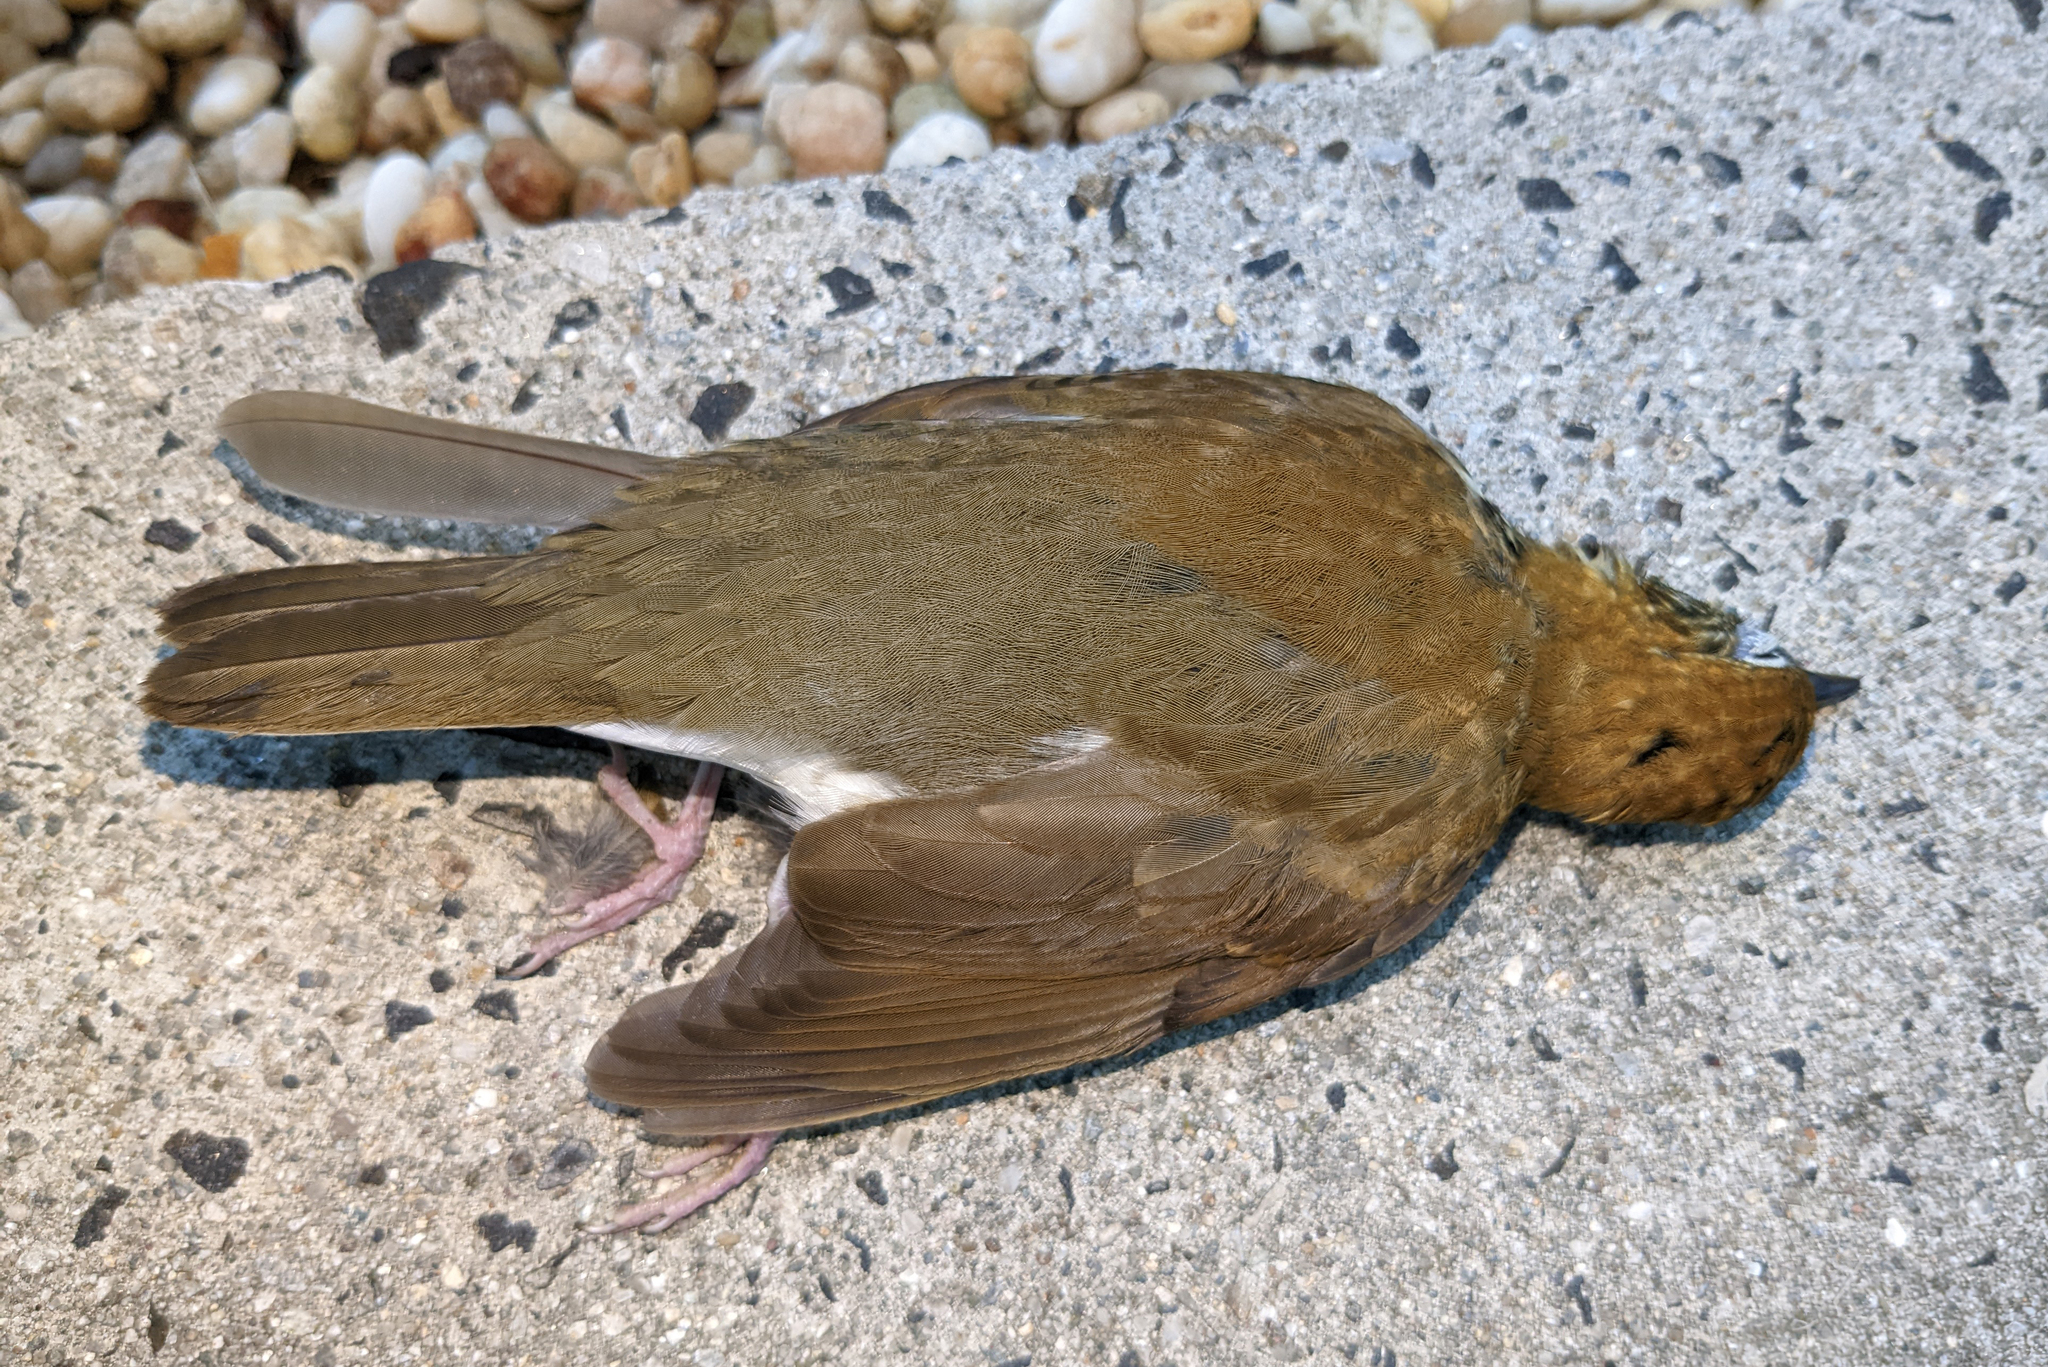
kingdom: Animalia
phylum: Chordata
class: Aves
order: Passeriformes
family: Turdidae
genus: Hylocichla
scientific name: Hylocichla mustelina
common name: Wood thrush
